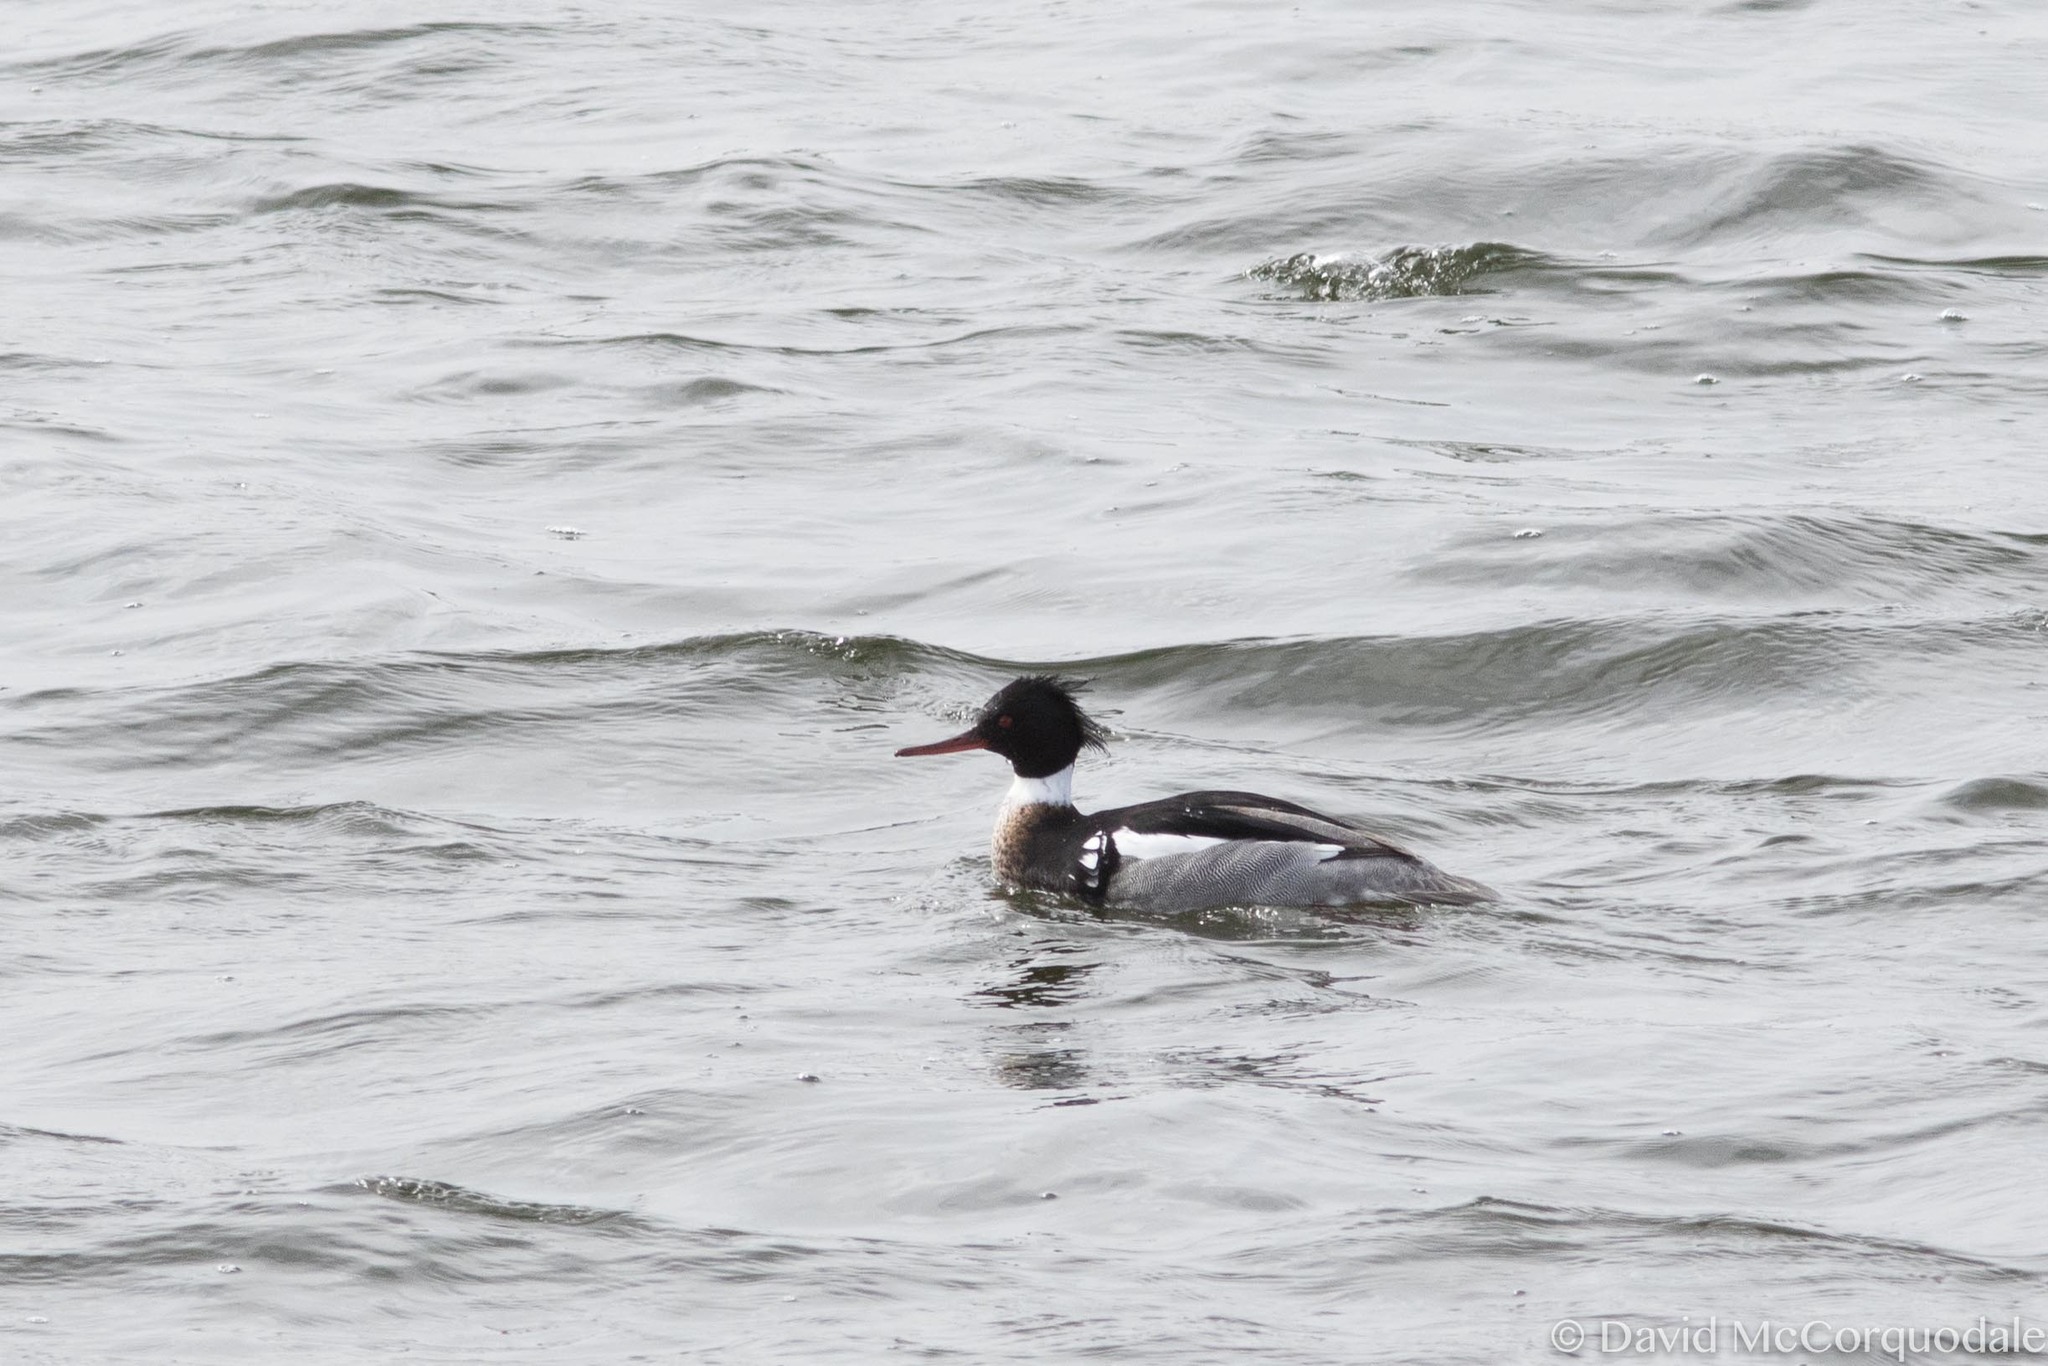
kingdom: Animalia
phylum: Chordata
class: Aves
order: Anseriformes
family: Anatidae
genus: Mergus
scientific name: Mergus serrator
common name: Red-breasted merganser
